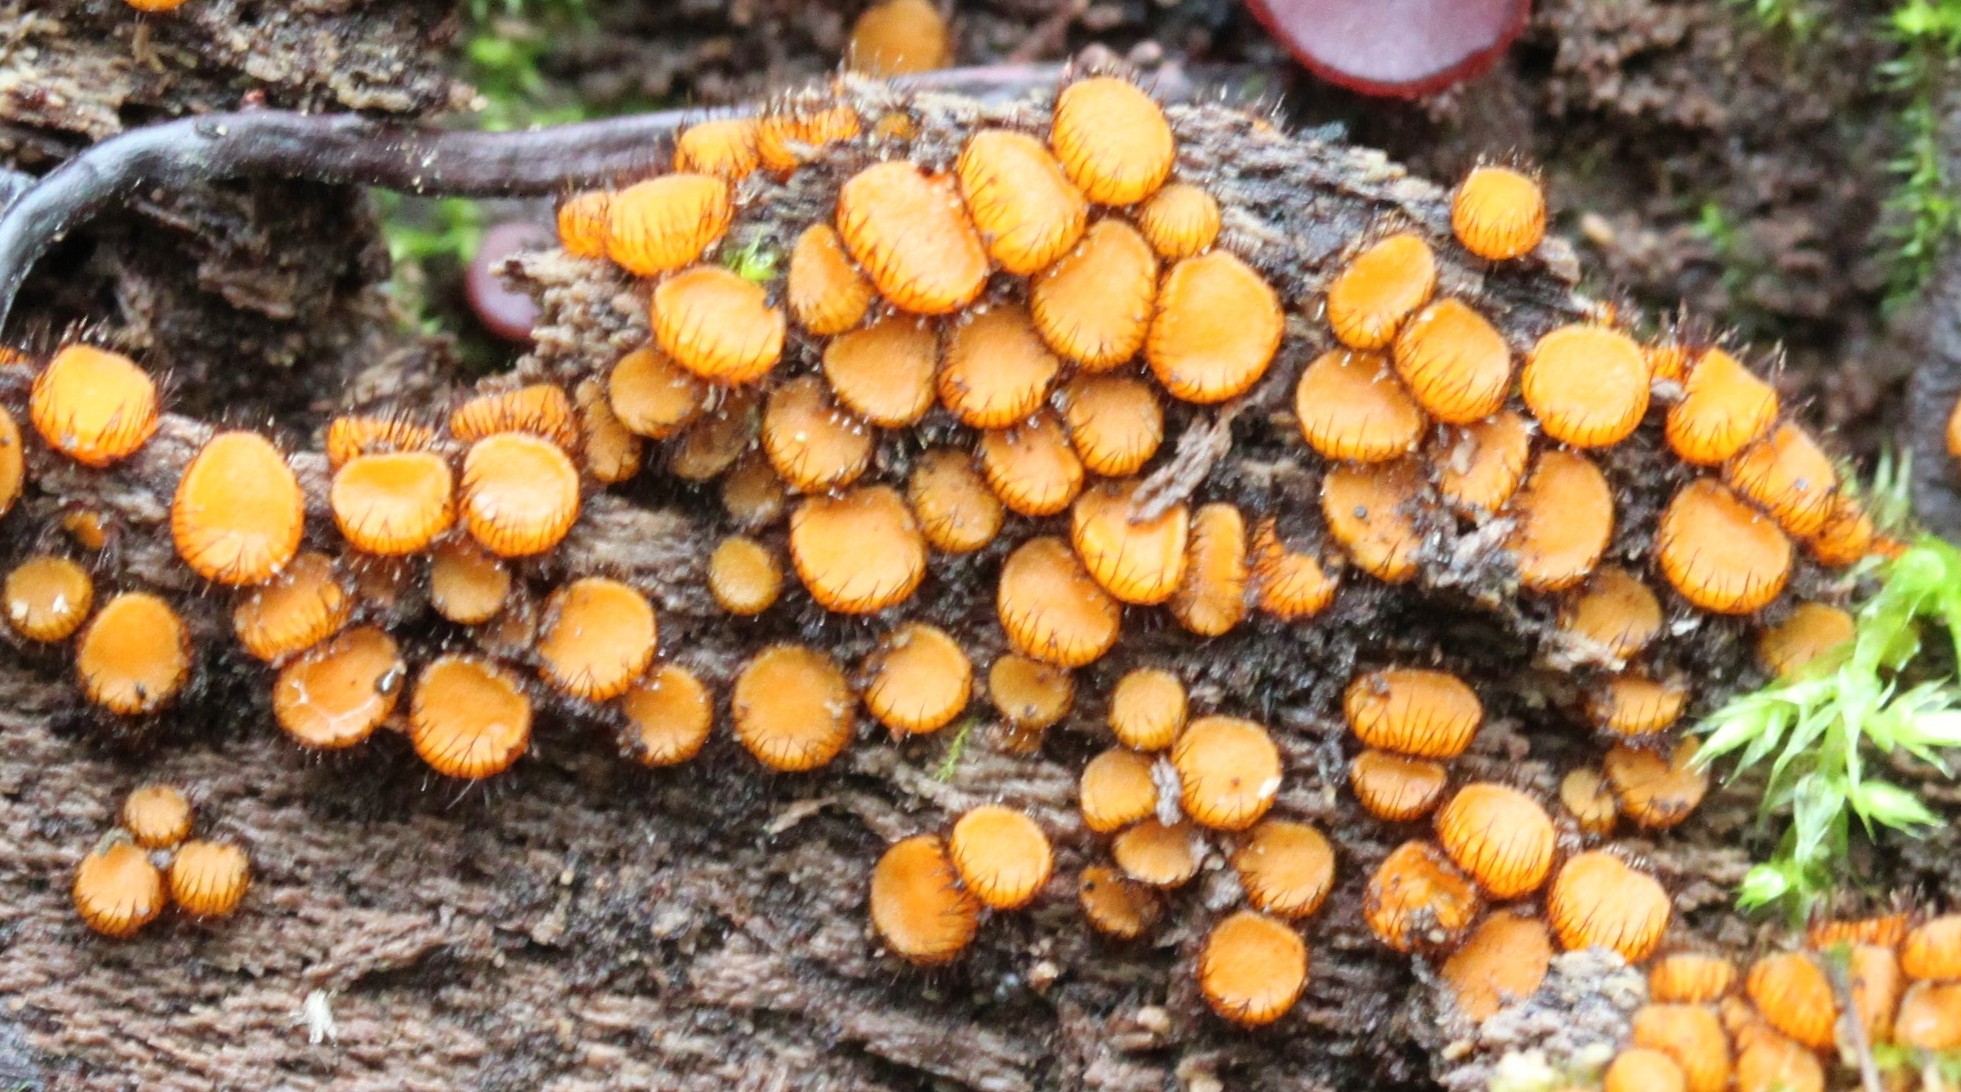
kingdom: Fungi
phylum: Ascomycota
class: Pezizomycetes
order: Pezizales
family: Pyronemataceae
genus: Scutellinia
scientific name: Scutellinia setosa
